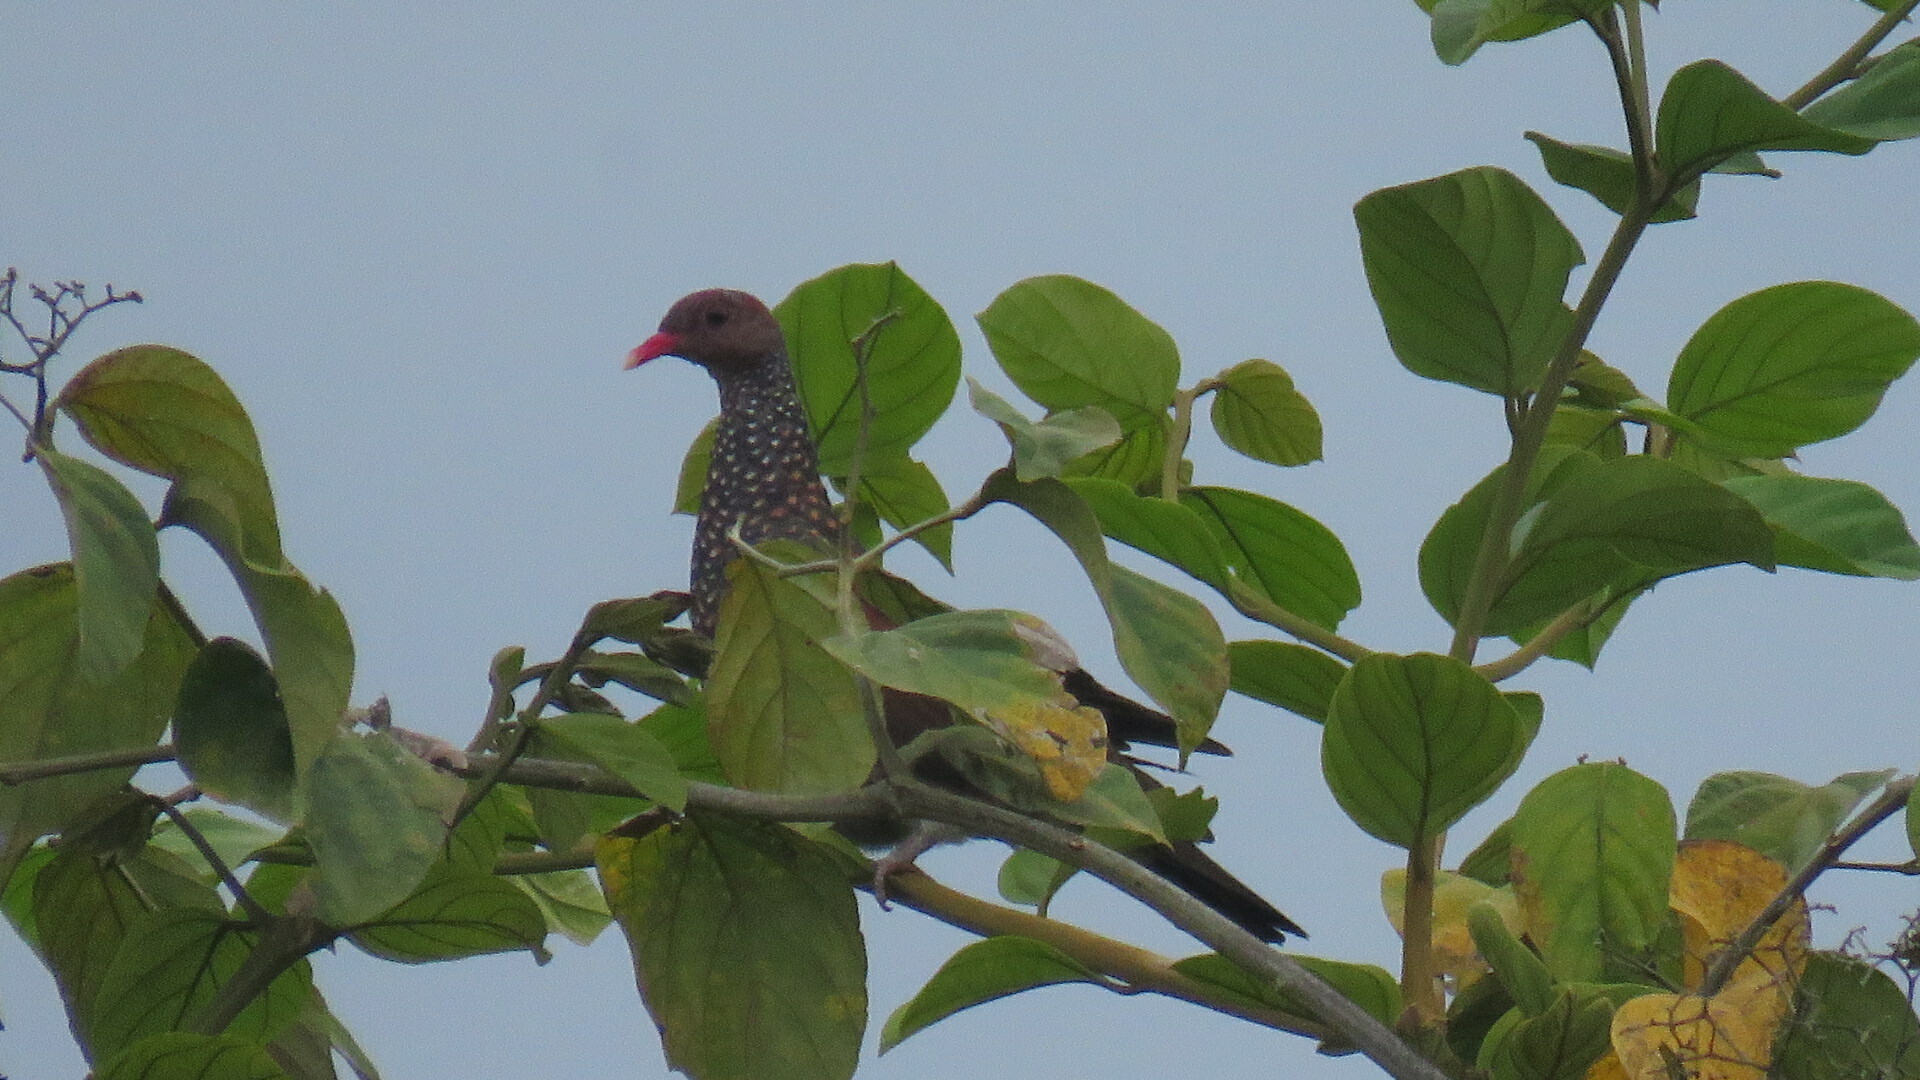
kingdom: Animalia
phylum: Chordata
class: Aves
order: Columbiformes
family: Columbidae
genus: Patagioenas
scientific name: Patagioenas speciosa
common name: Scaled pigeon
